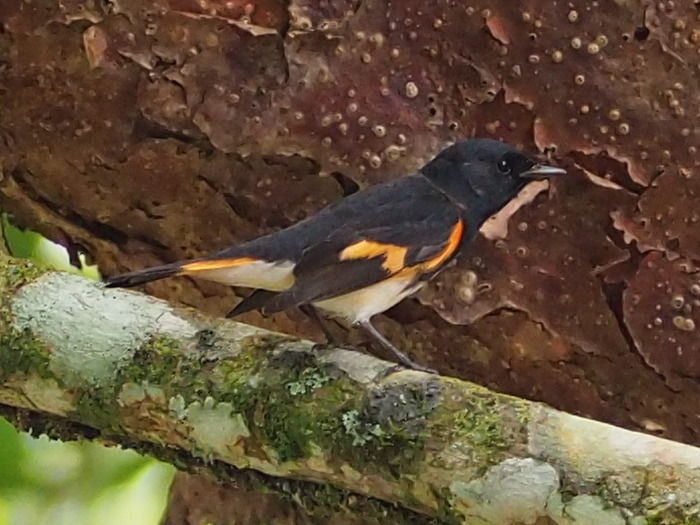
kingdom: Animalia
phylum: Chordata
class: Aves
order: Passeriformes
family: Parulidae
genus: Setophaga
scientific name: Setophaga ruticilla
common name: American redstart
